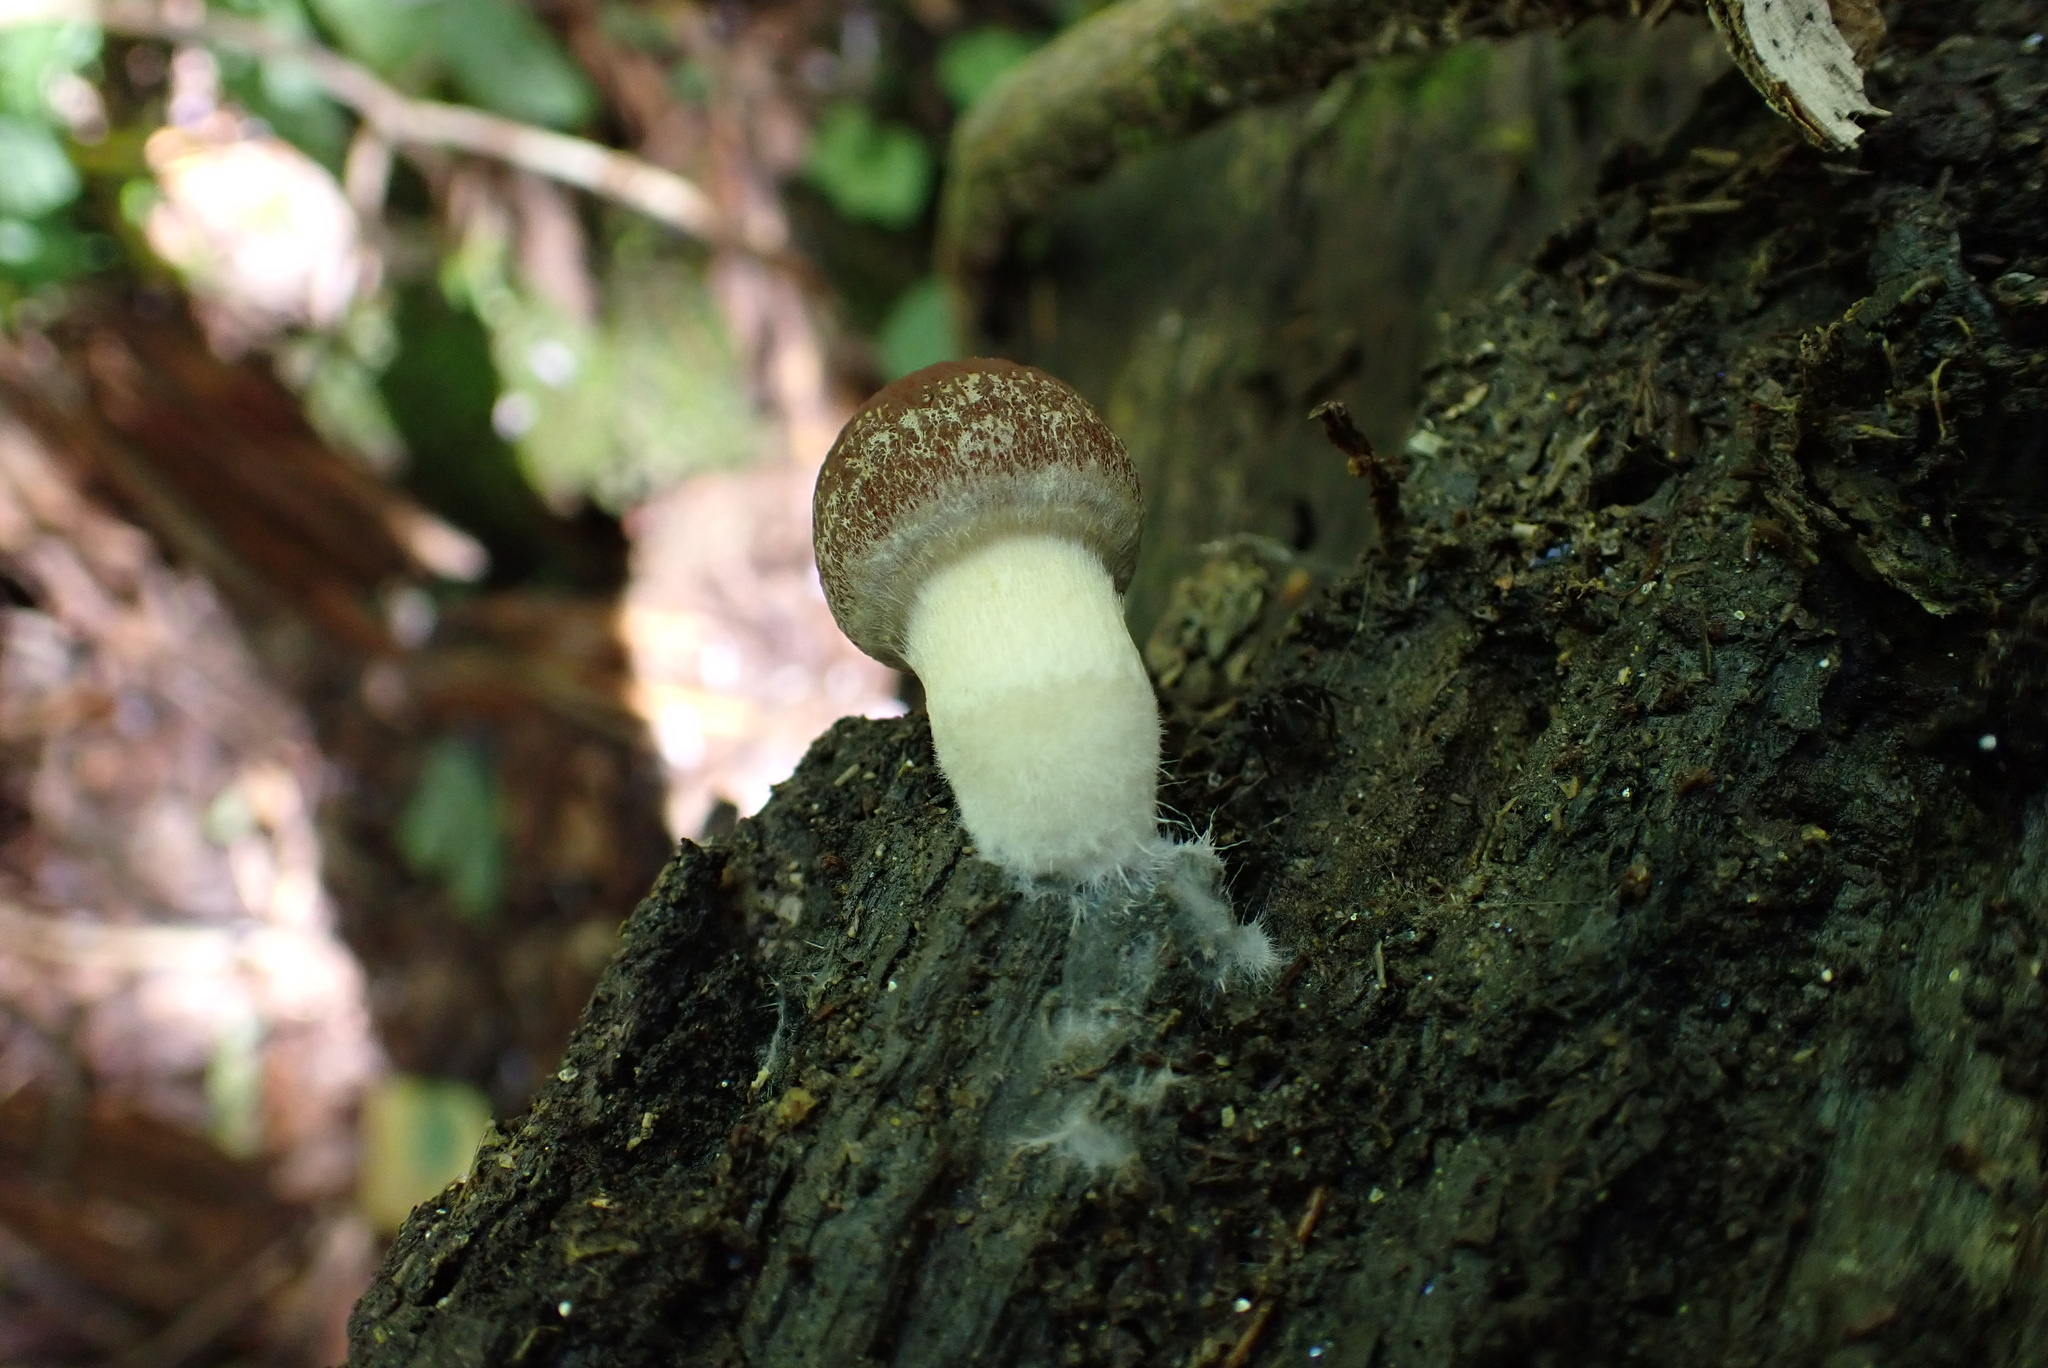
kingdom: Fungi
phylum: Basidiomycota
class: Agaricomycetes
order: Agaricales
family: Psathyrellaceae
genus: Typhrasa
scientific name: Typhrasa gossypina
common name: Wrinkled psathyrella
